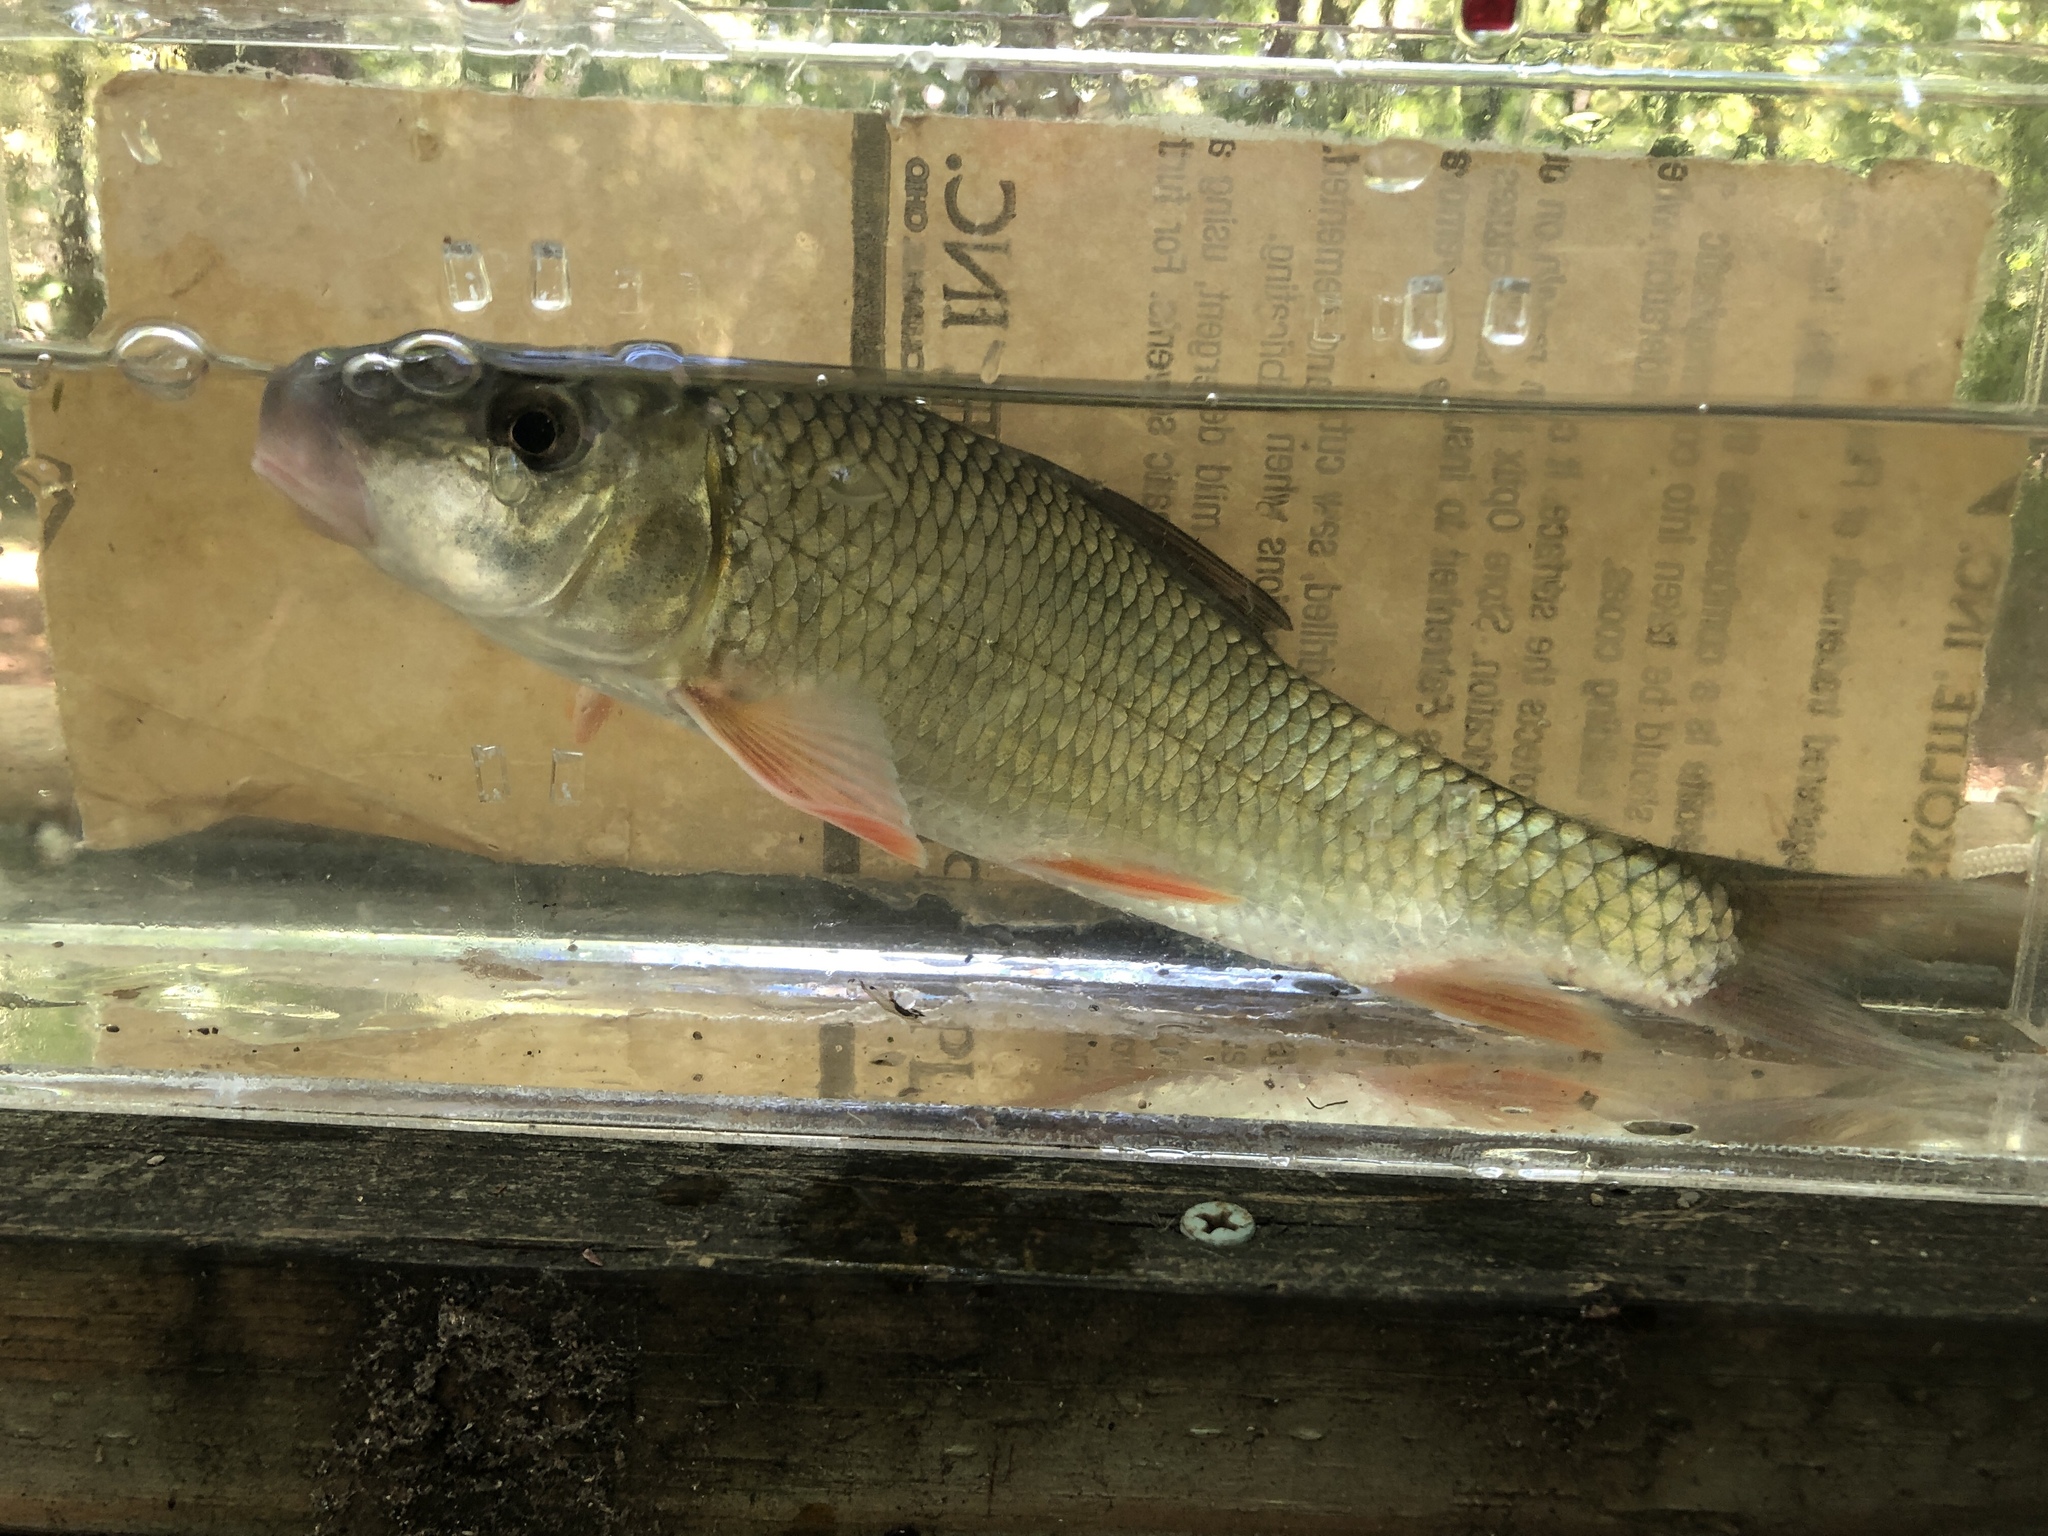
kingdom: Animalia
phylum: Chordata
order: Cypriniformes
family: Catostomidae
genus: Moxostoma
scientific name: Moxostoma erythrurum
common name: Golden redhorse
